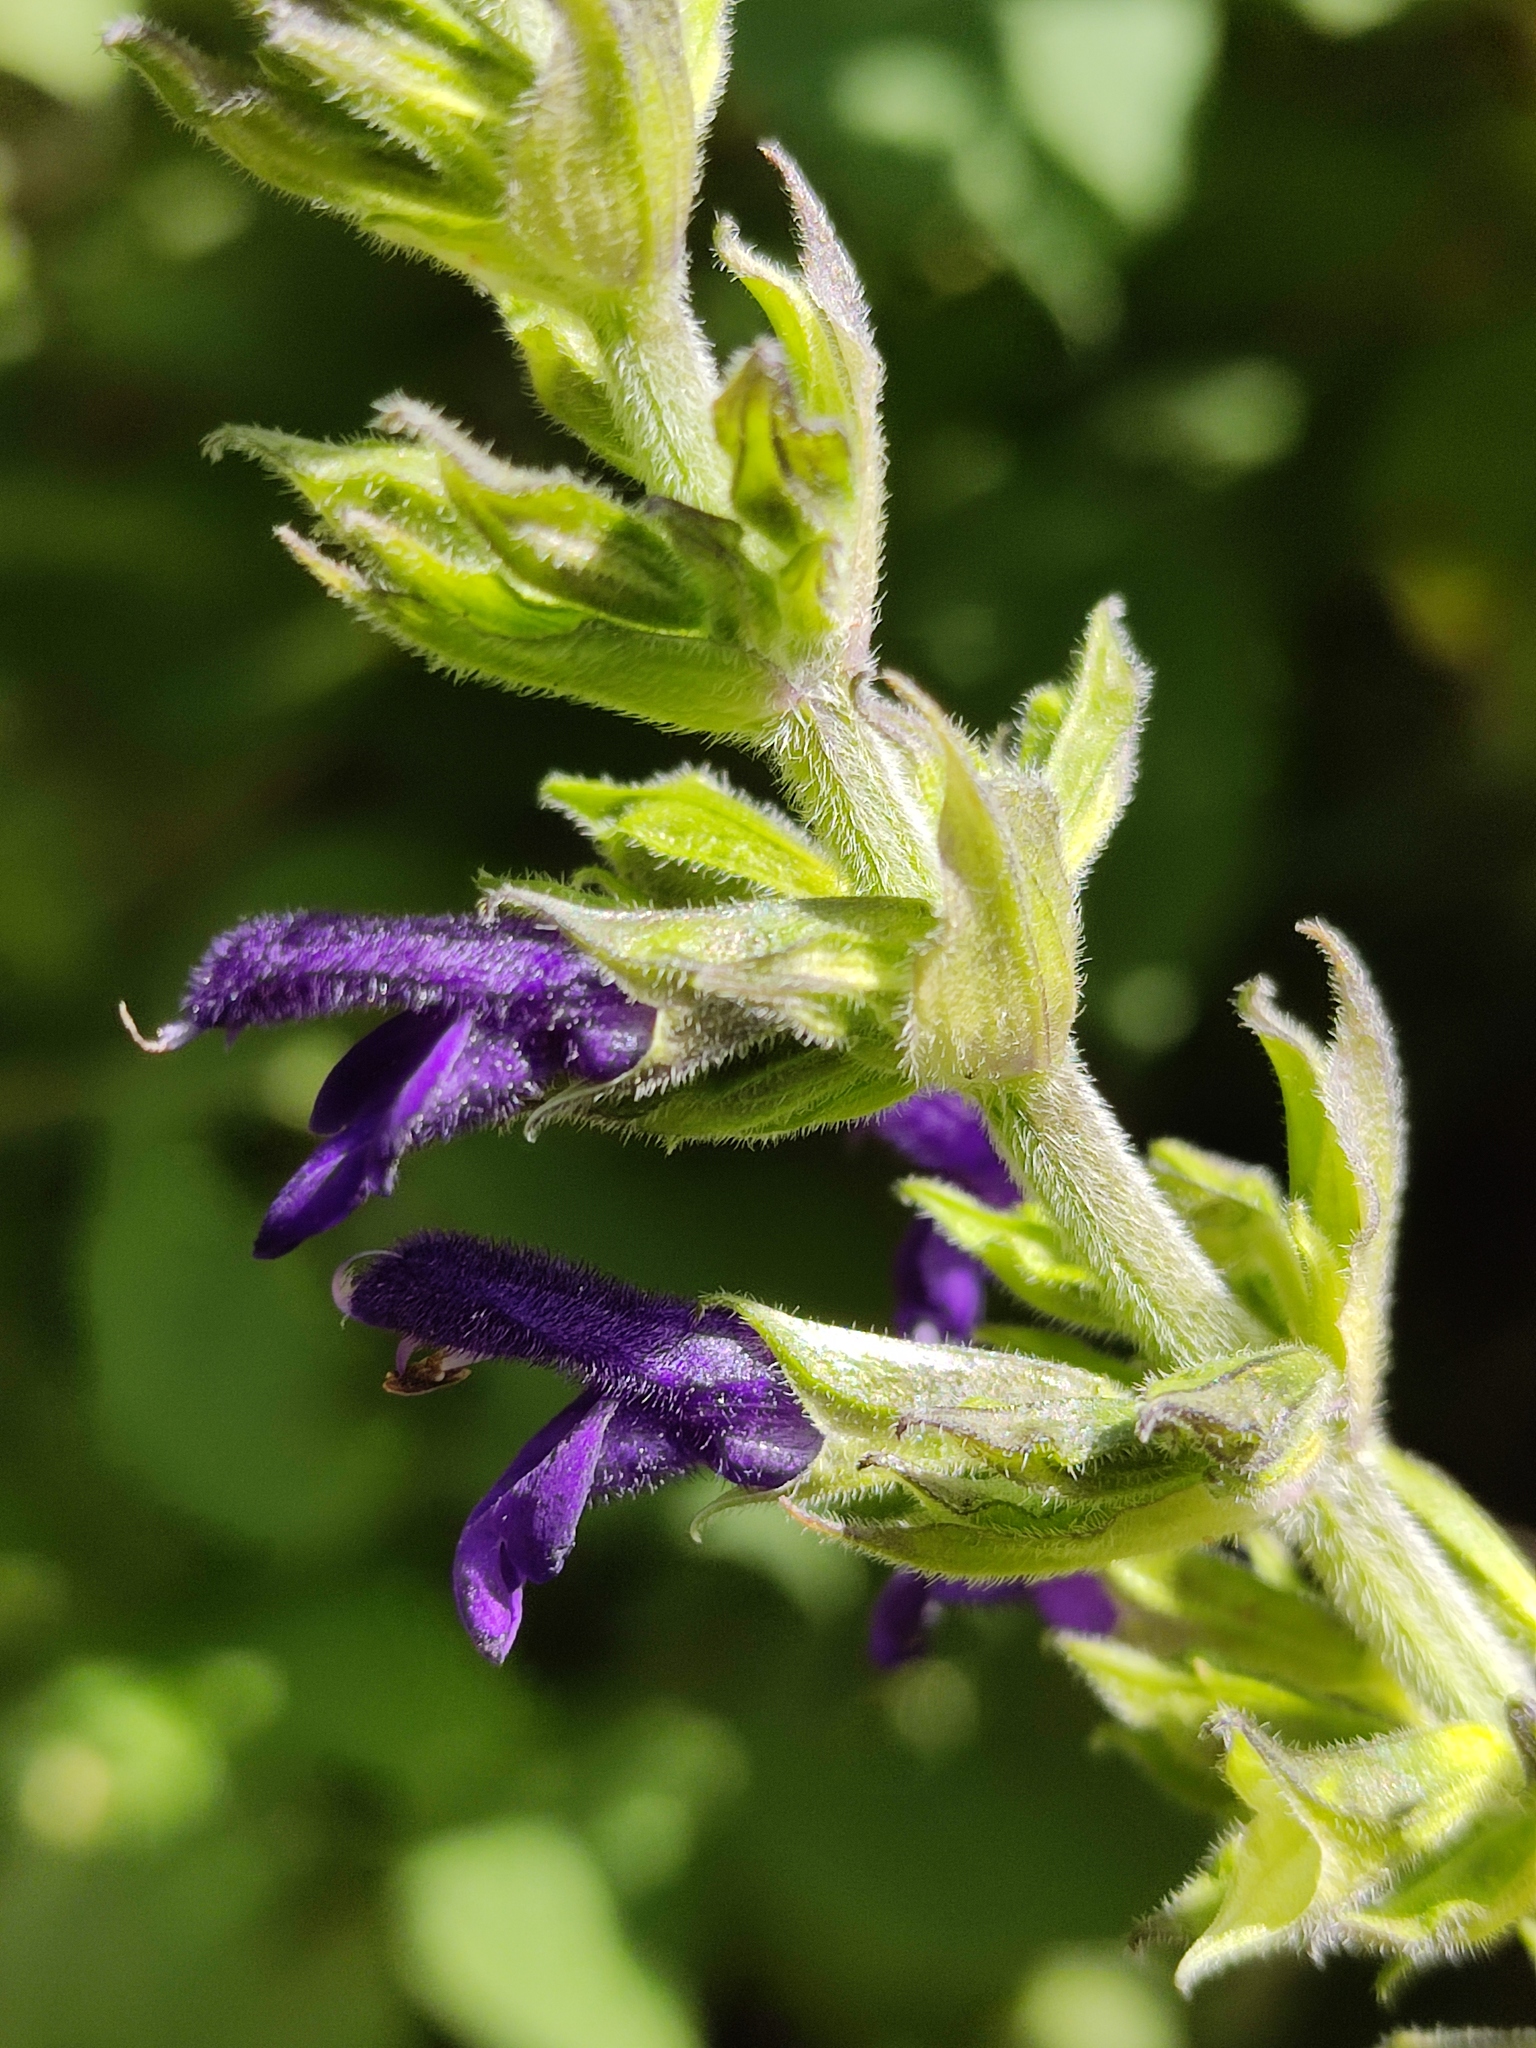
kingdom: Plantae
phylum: Tracheophyta
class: Magnoliopsida
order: Lamiales
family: Lamiaceae
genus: Salvia
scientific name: Salvia mexicana
